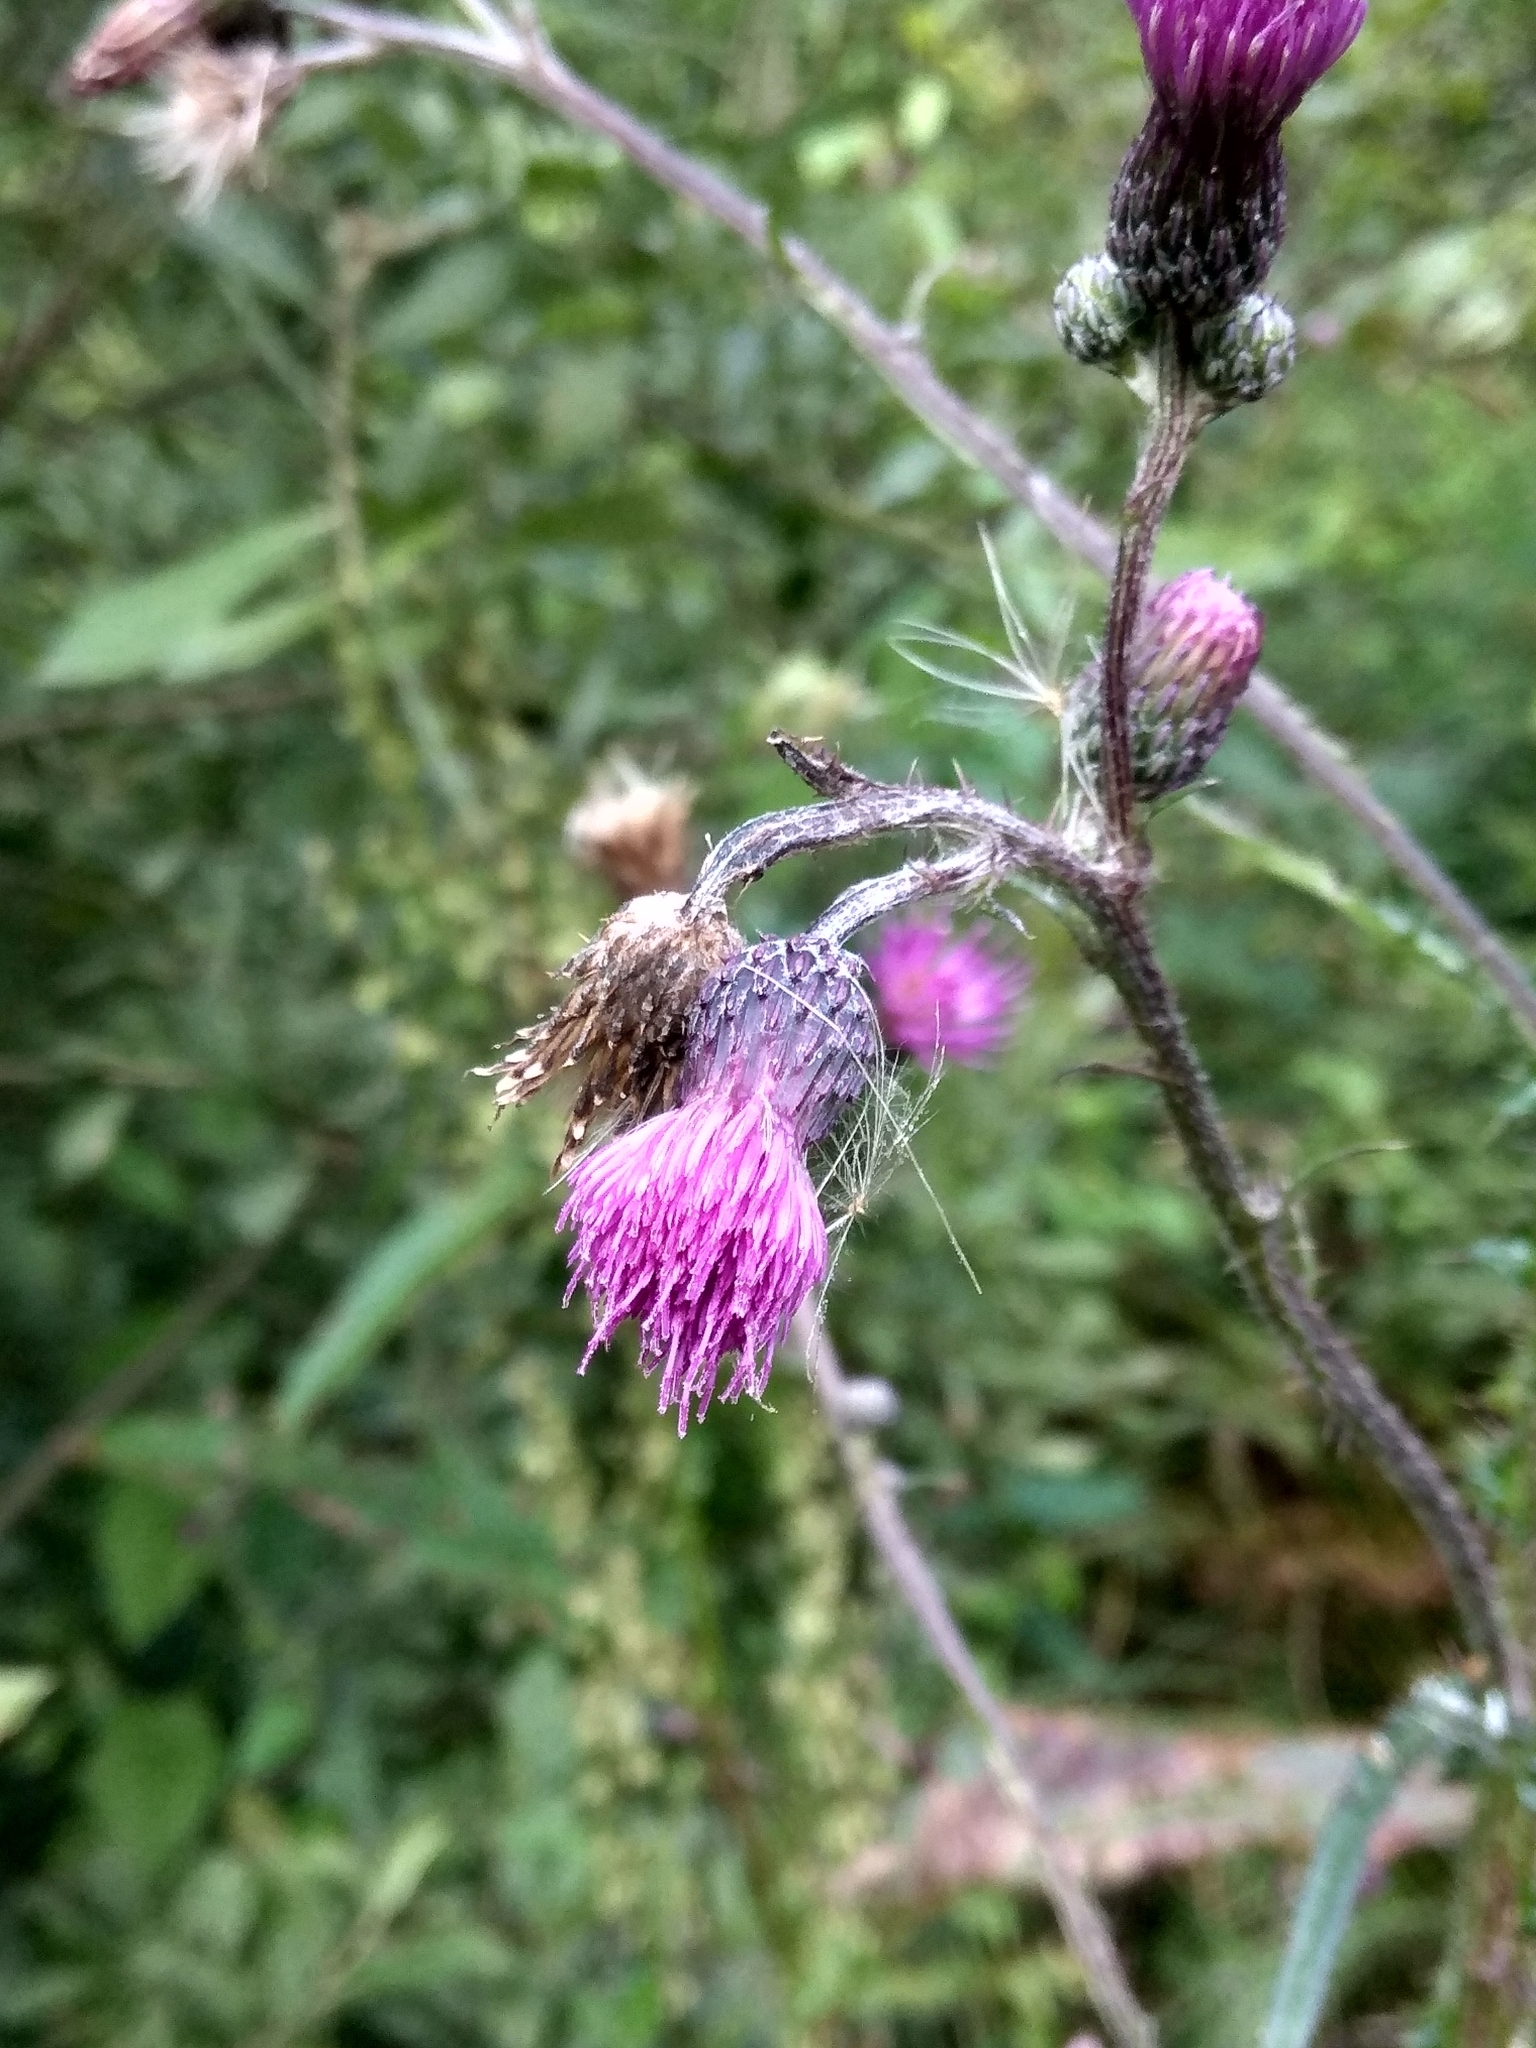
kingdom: Plantae
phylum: Tracheophyta
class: Magnoliopsida
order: Asterales
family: Asteraceae
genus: Cirsium
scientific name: Cirsium palustre
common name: Marsh thistle
